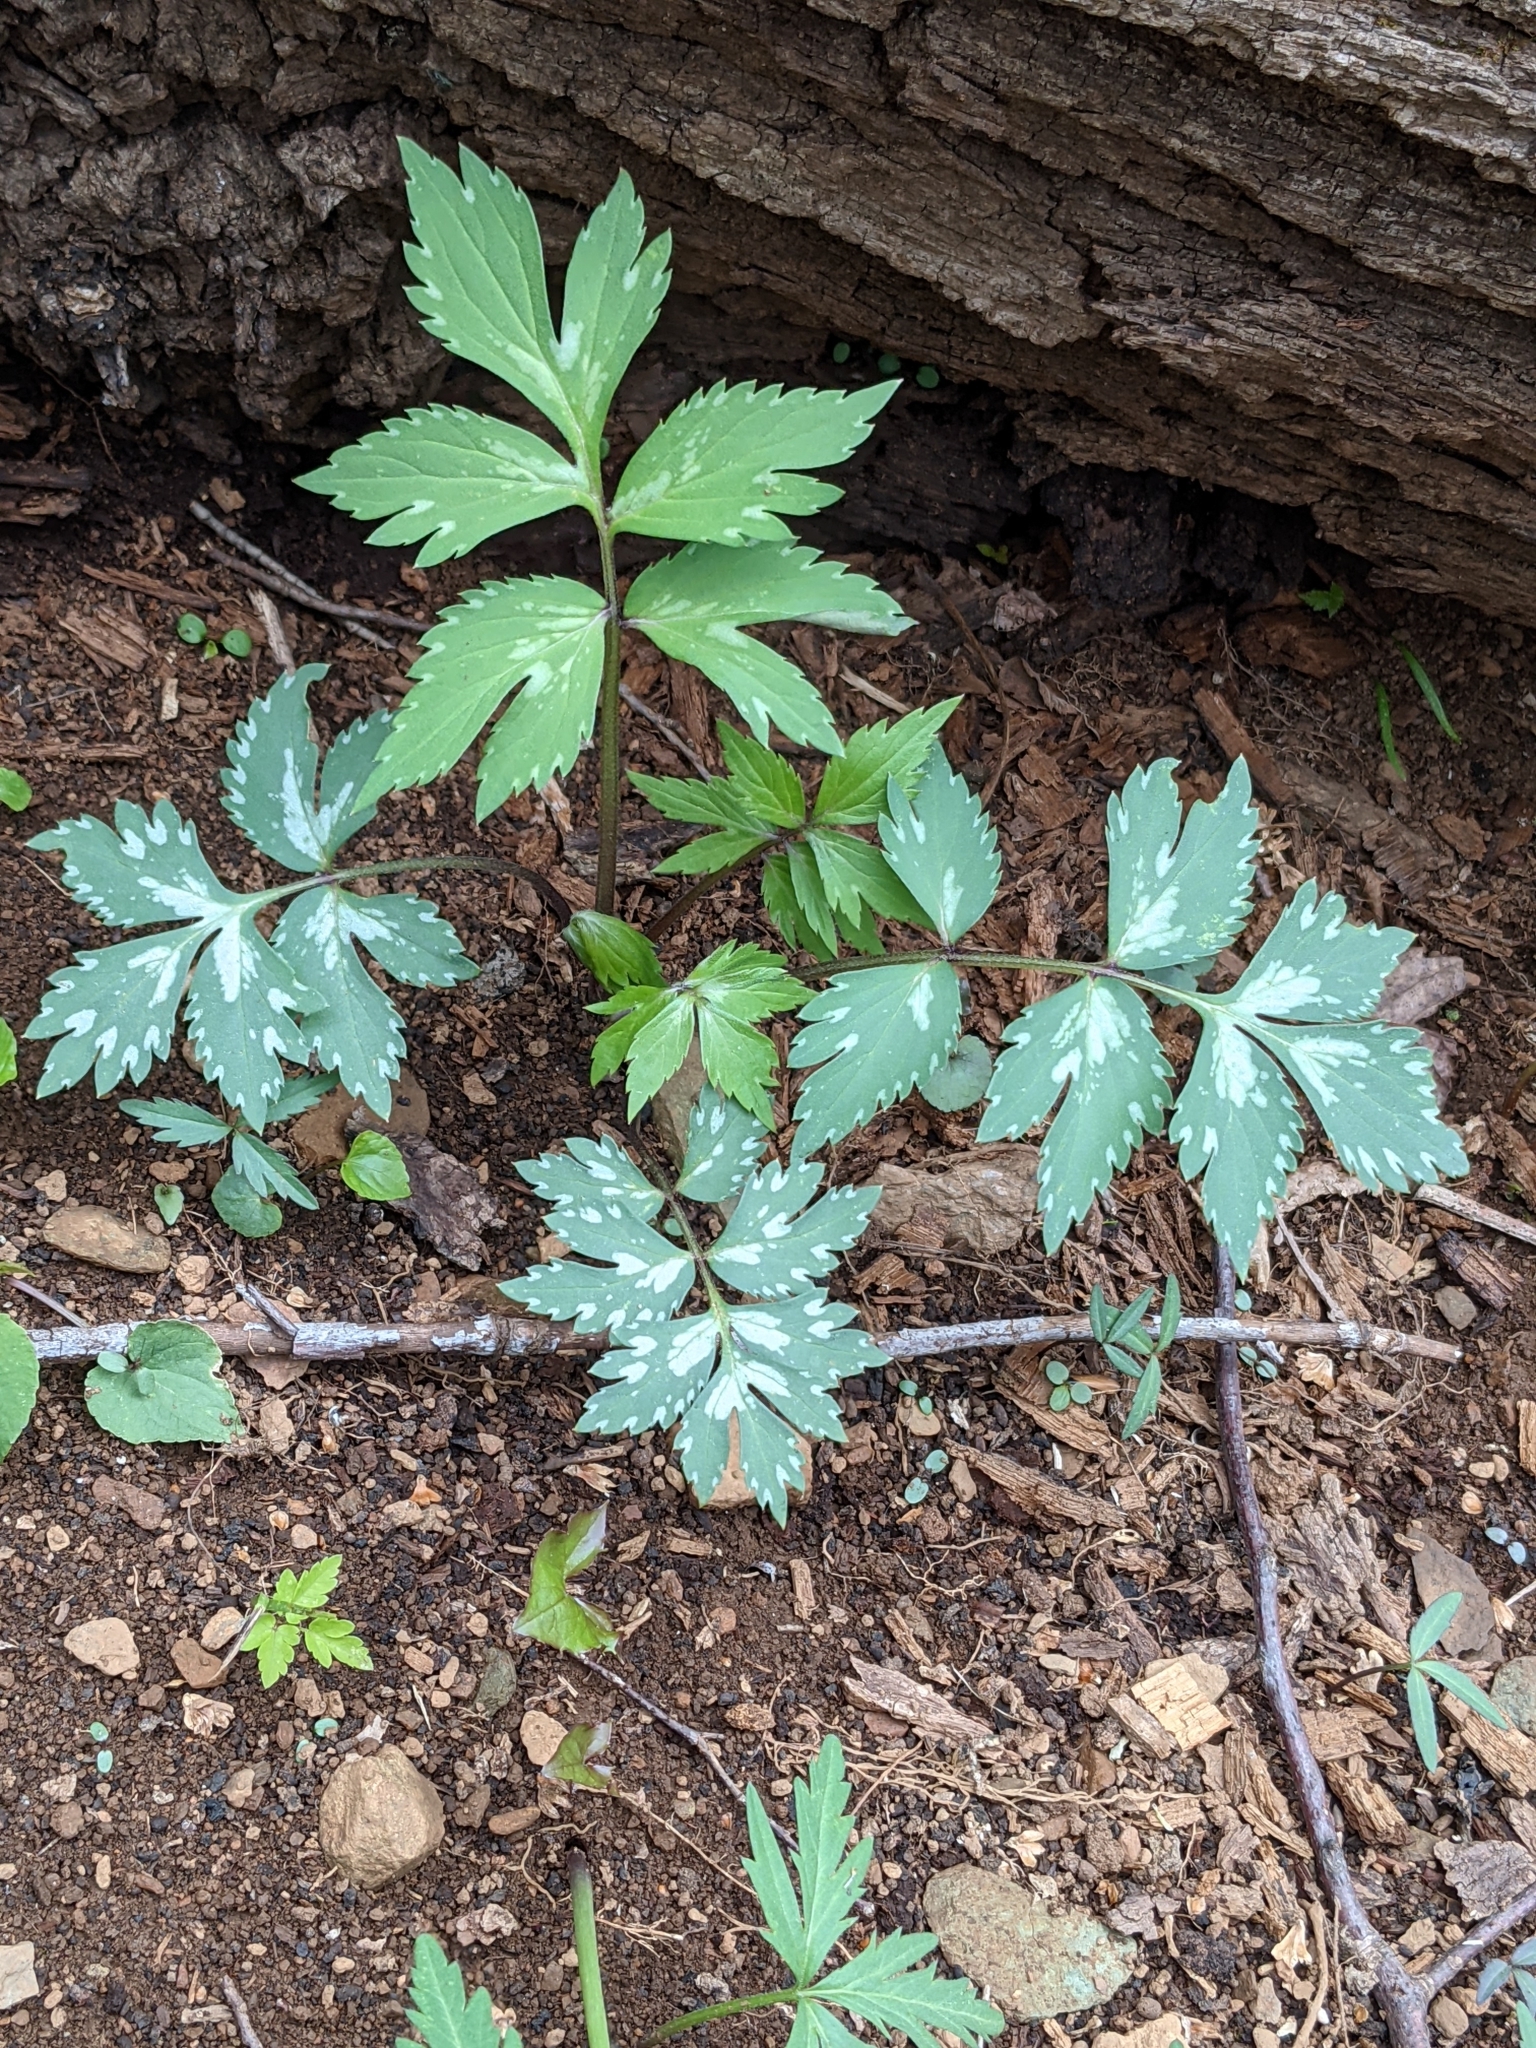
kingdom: Plantae
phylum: Tracheophyta
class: Magnoliopsida
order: Boraginales
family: Hydrophyllaceae
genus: Hydrophyllum
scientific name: Hydrophyllum virginianum
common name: Virginia waterleaf
